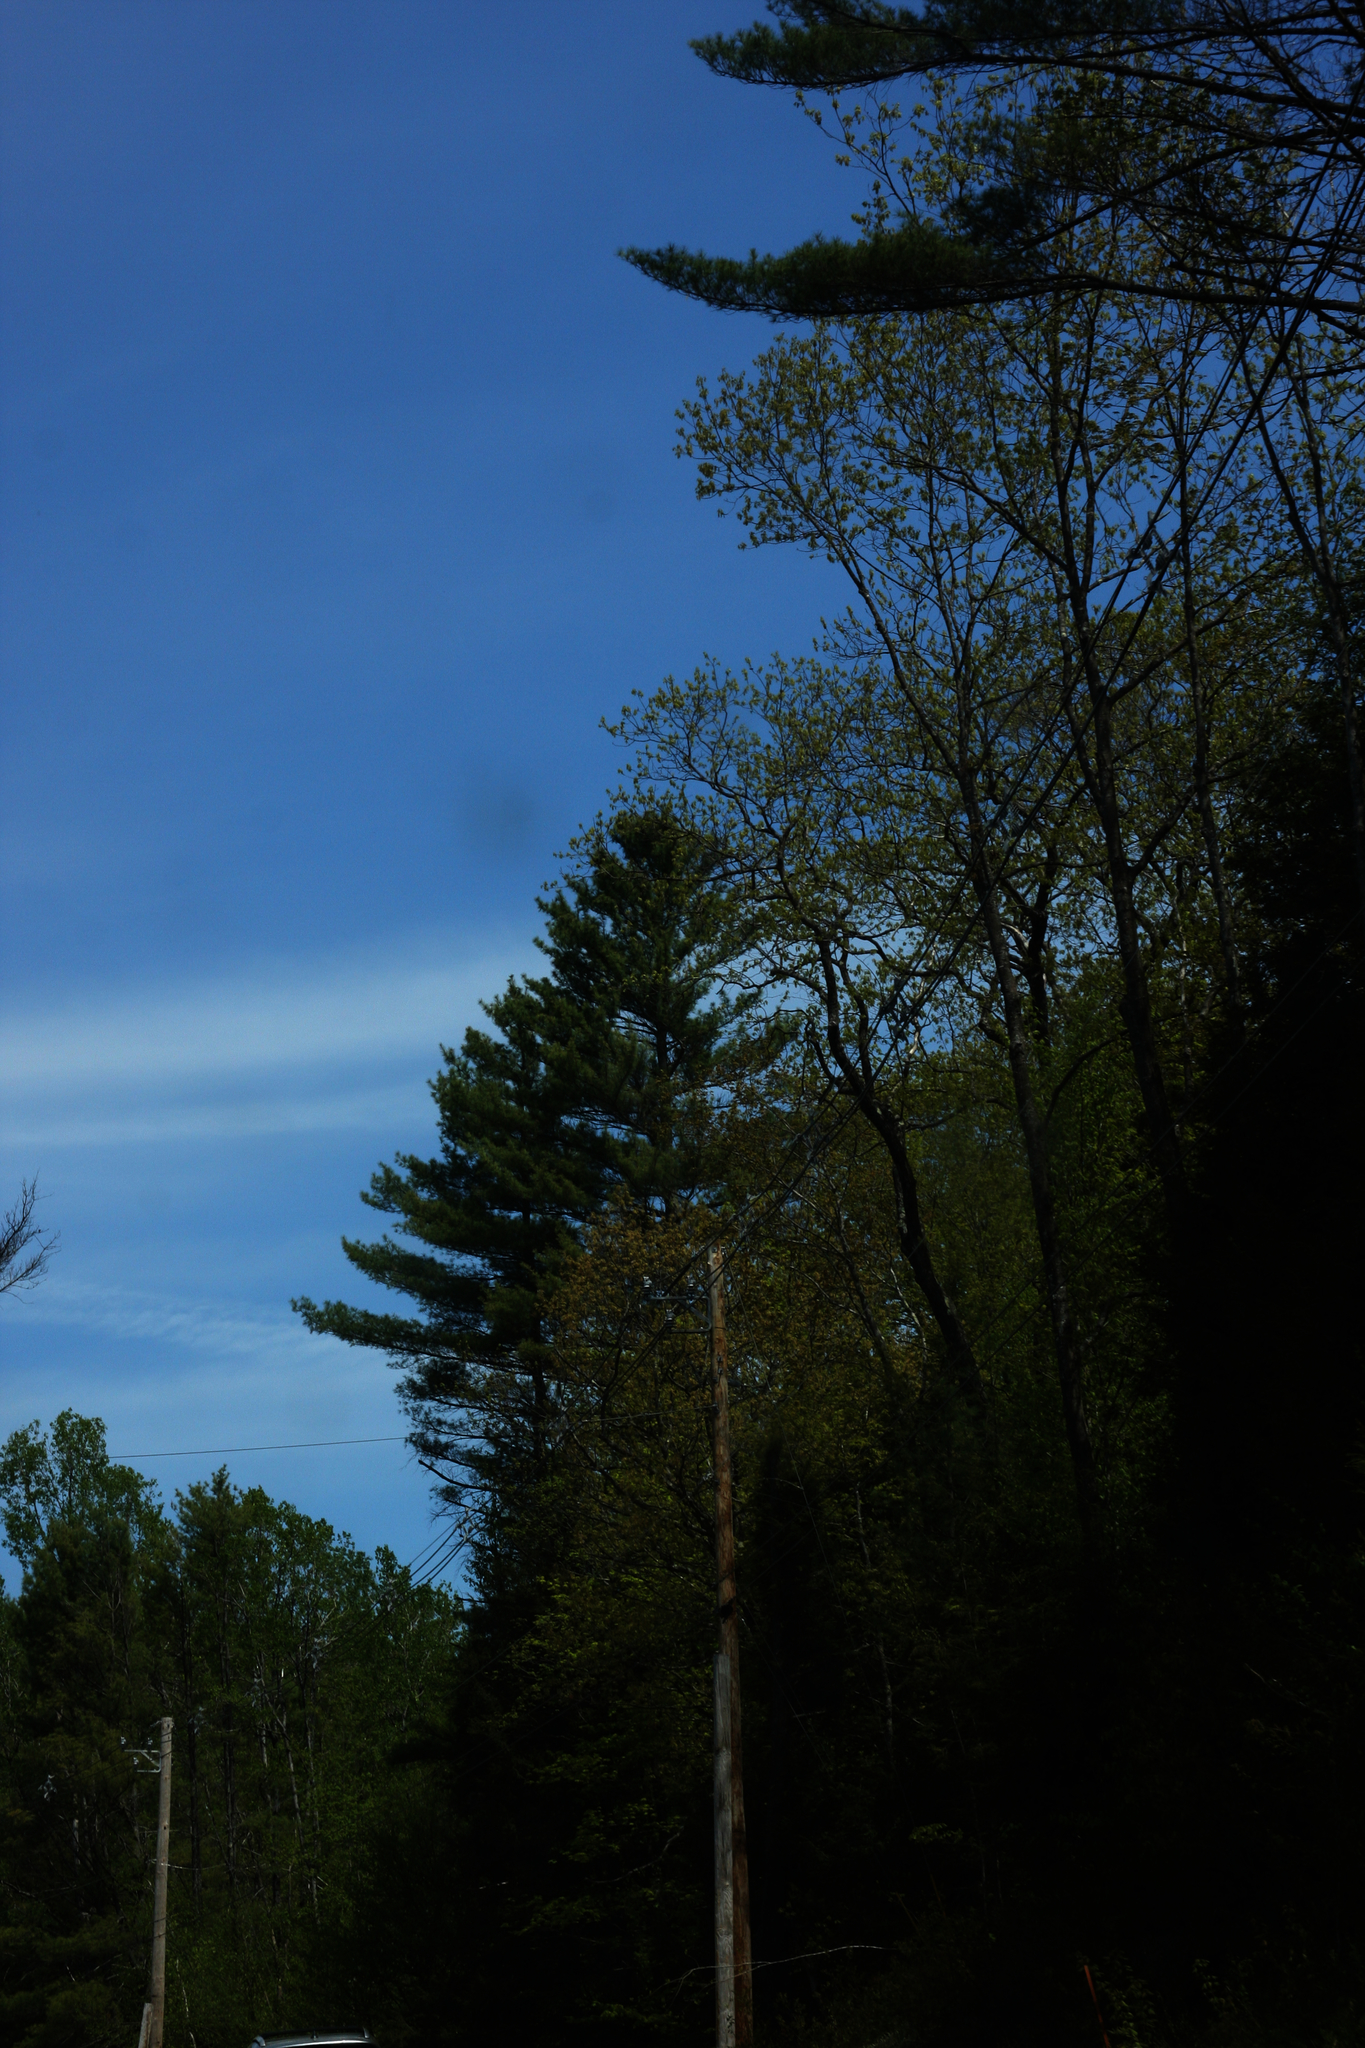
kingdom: Plantae
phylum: Tracheophyta
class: Pinopsida
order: Pinales
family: Pinaceae
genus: Pinus
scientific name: Pinus strobus
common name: Weymouth pine
